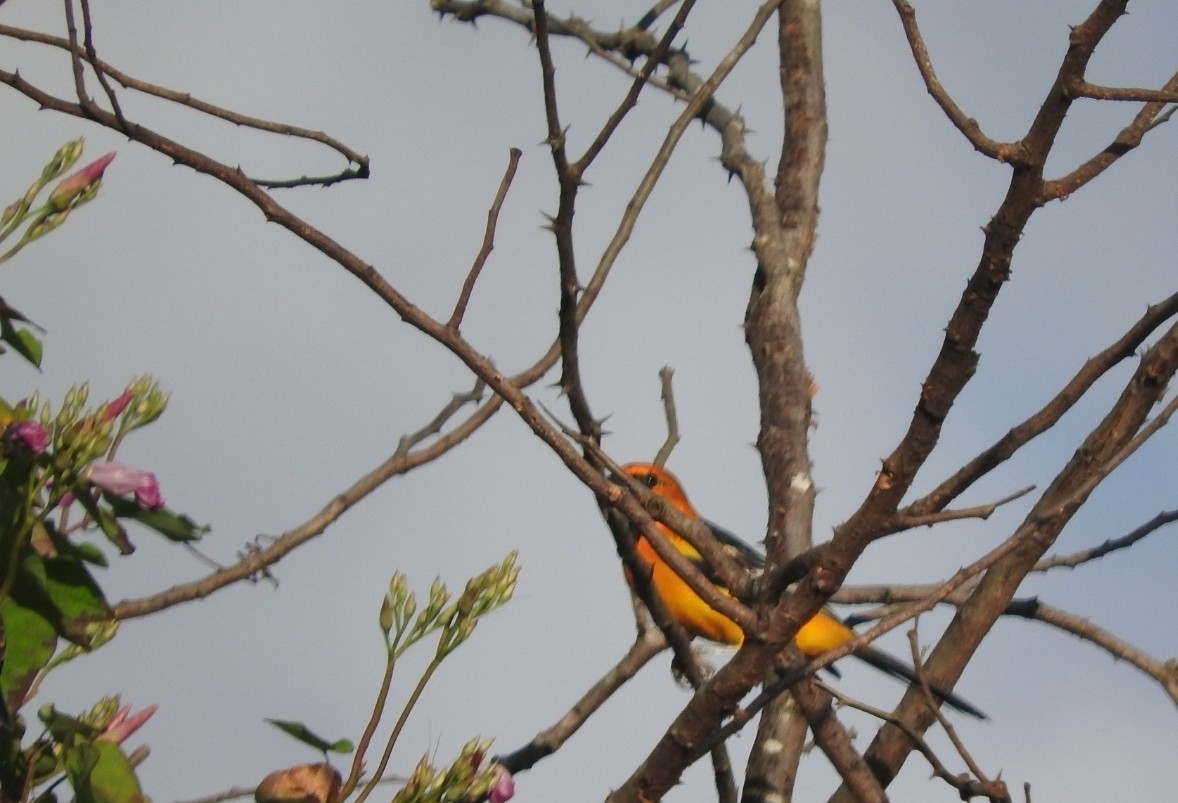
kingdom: Animalia
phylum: Chordata
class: Aves
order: Passeriformes
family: Icteridae
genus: Icterus
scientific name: Icterus gularis
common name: Altamira oriole
